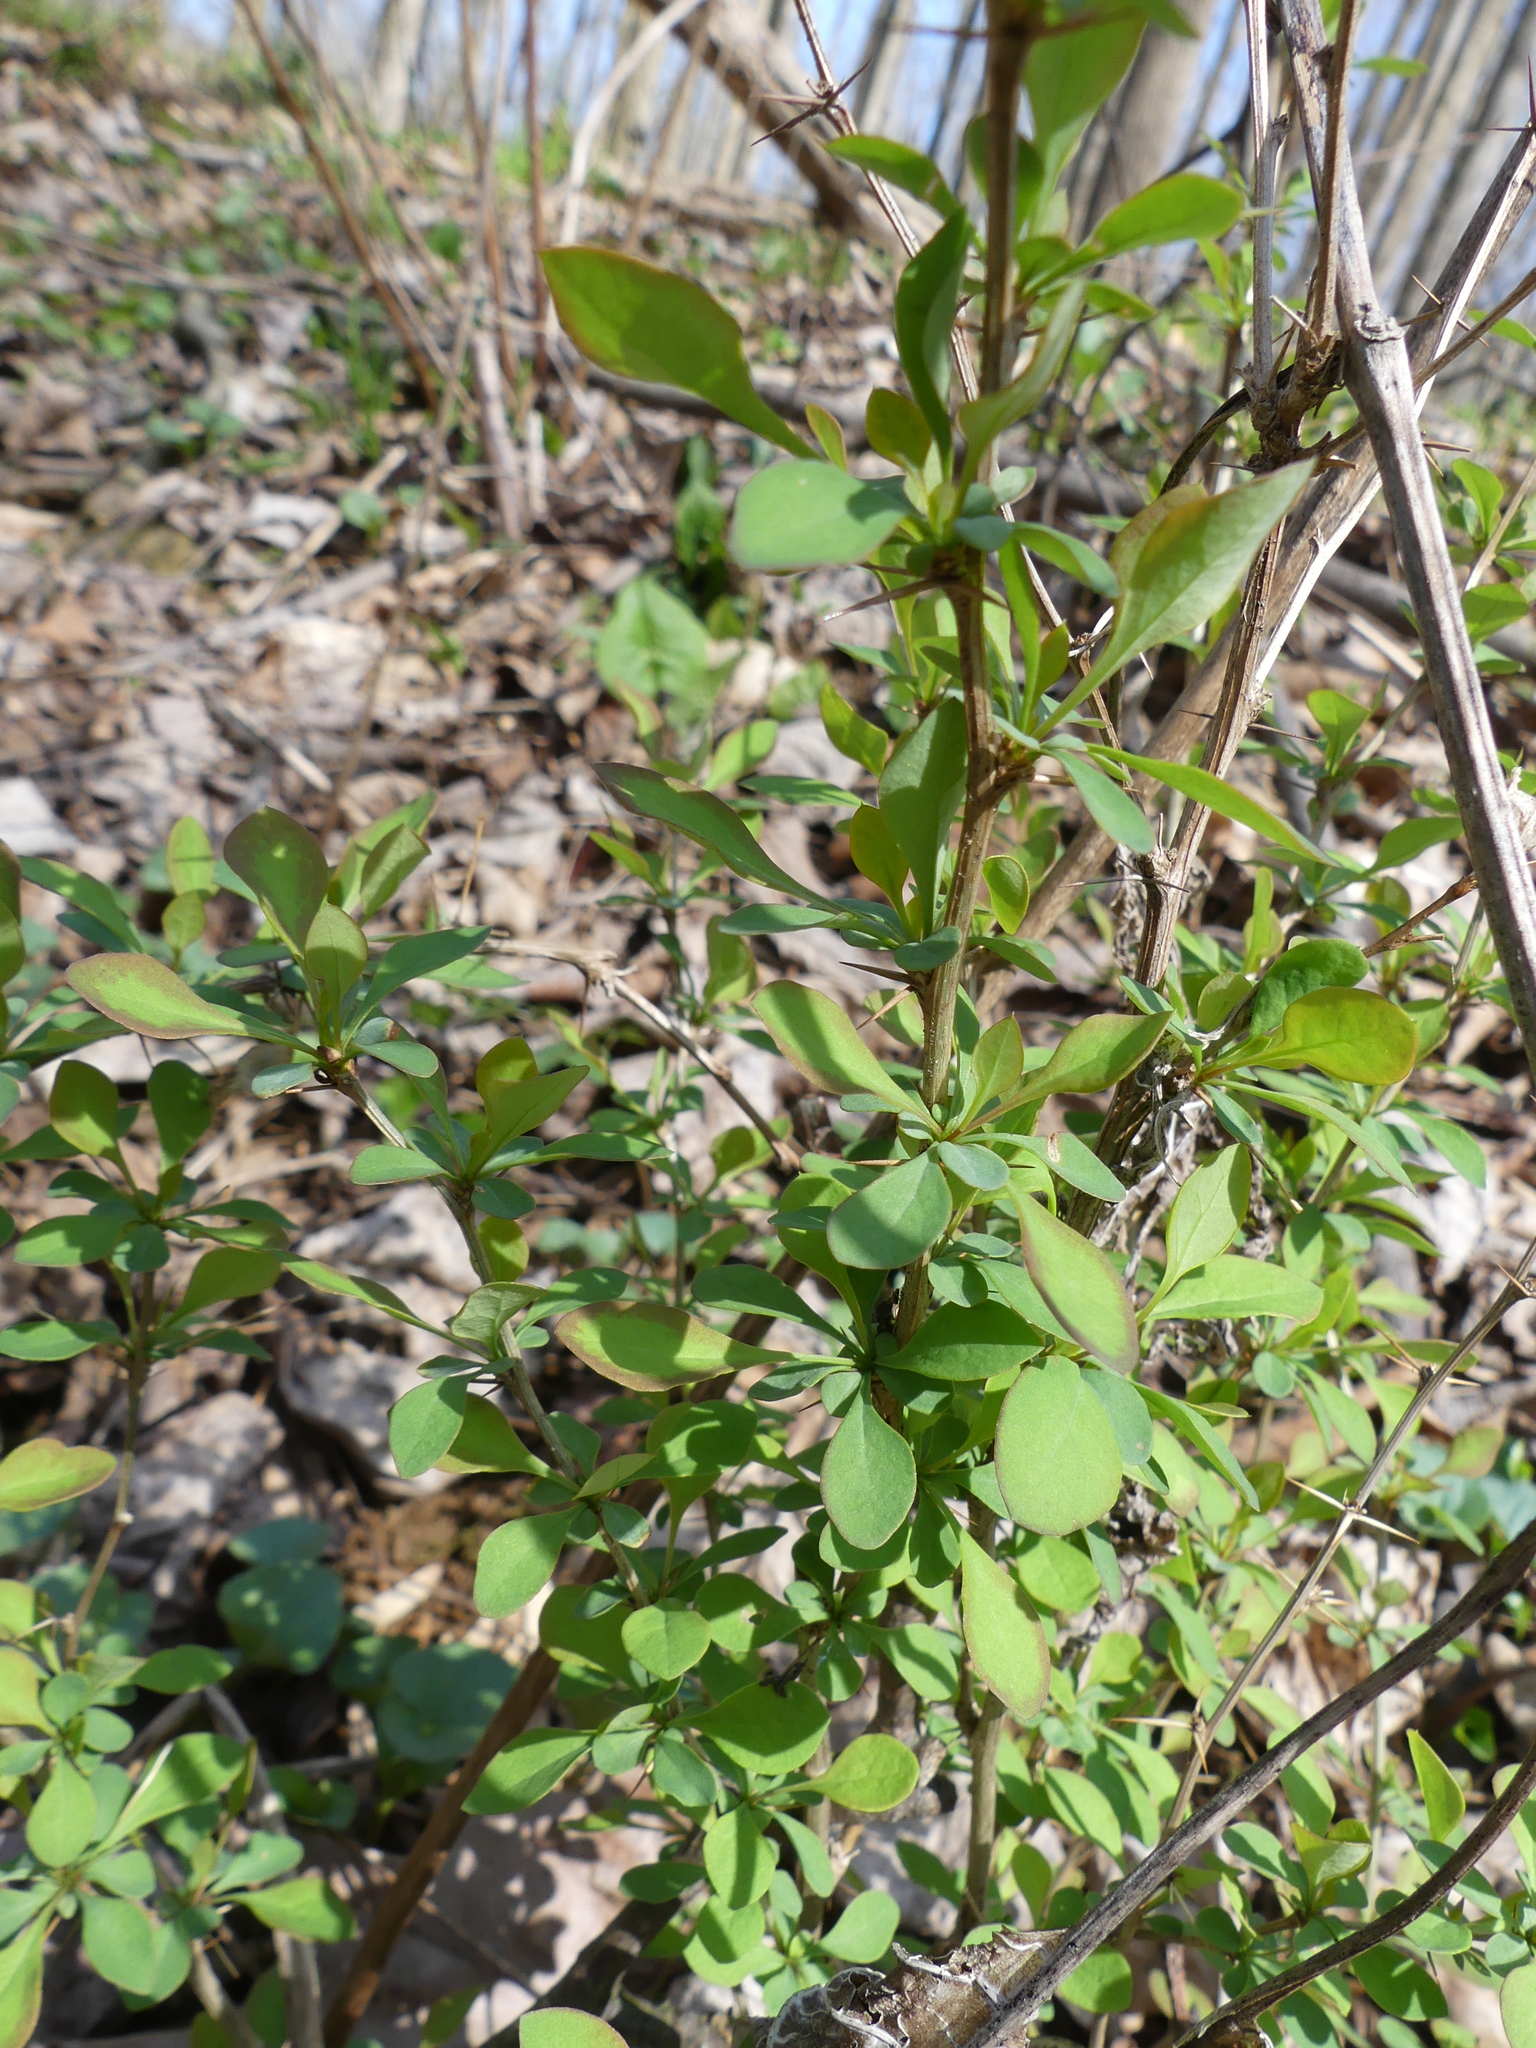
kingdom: Plantae
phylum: Tracheophyta
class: Magnoliopsida
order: Ranunculales
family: Berberidaceae
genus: Berberis
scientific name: Berberis thunbergii
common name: Japanese barberry
